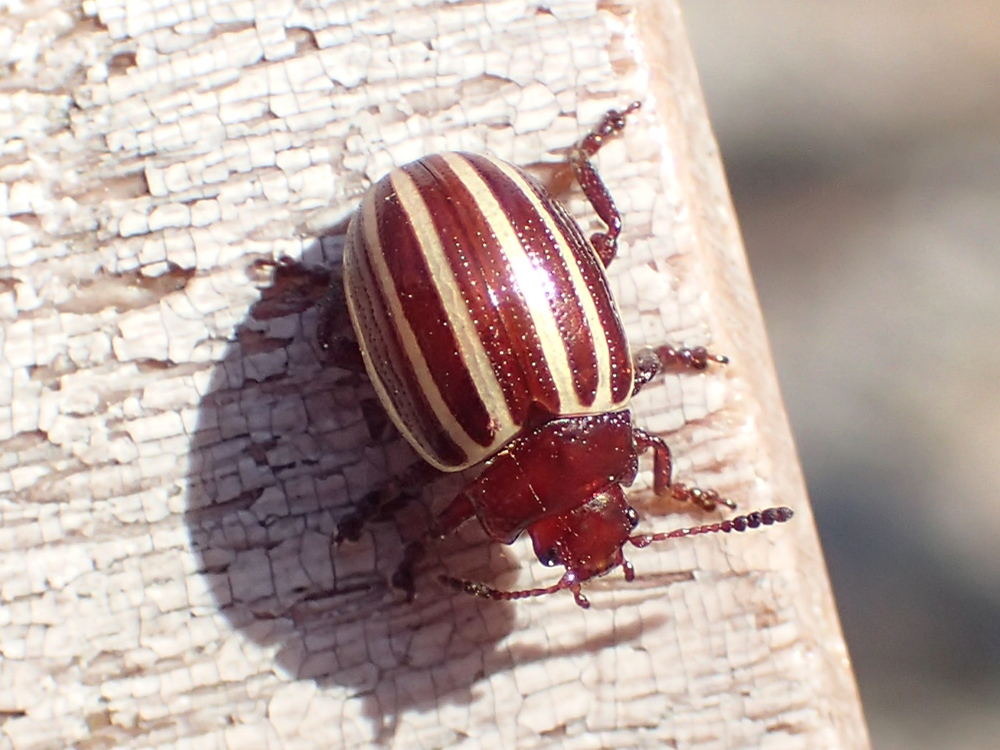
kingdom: Animalia
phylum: Arthropoda
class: Insecta
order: Coleoptera
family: Chrysomelidae
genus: Calligrapha
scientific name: Calligrapha cephalanti
